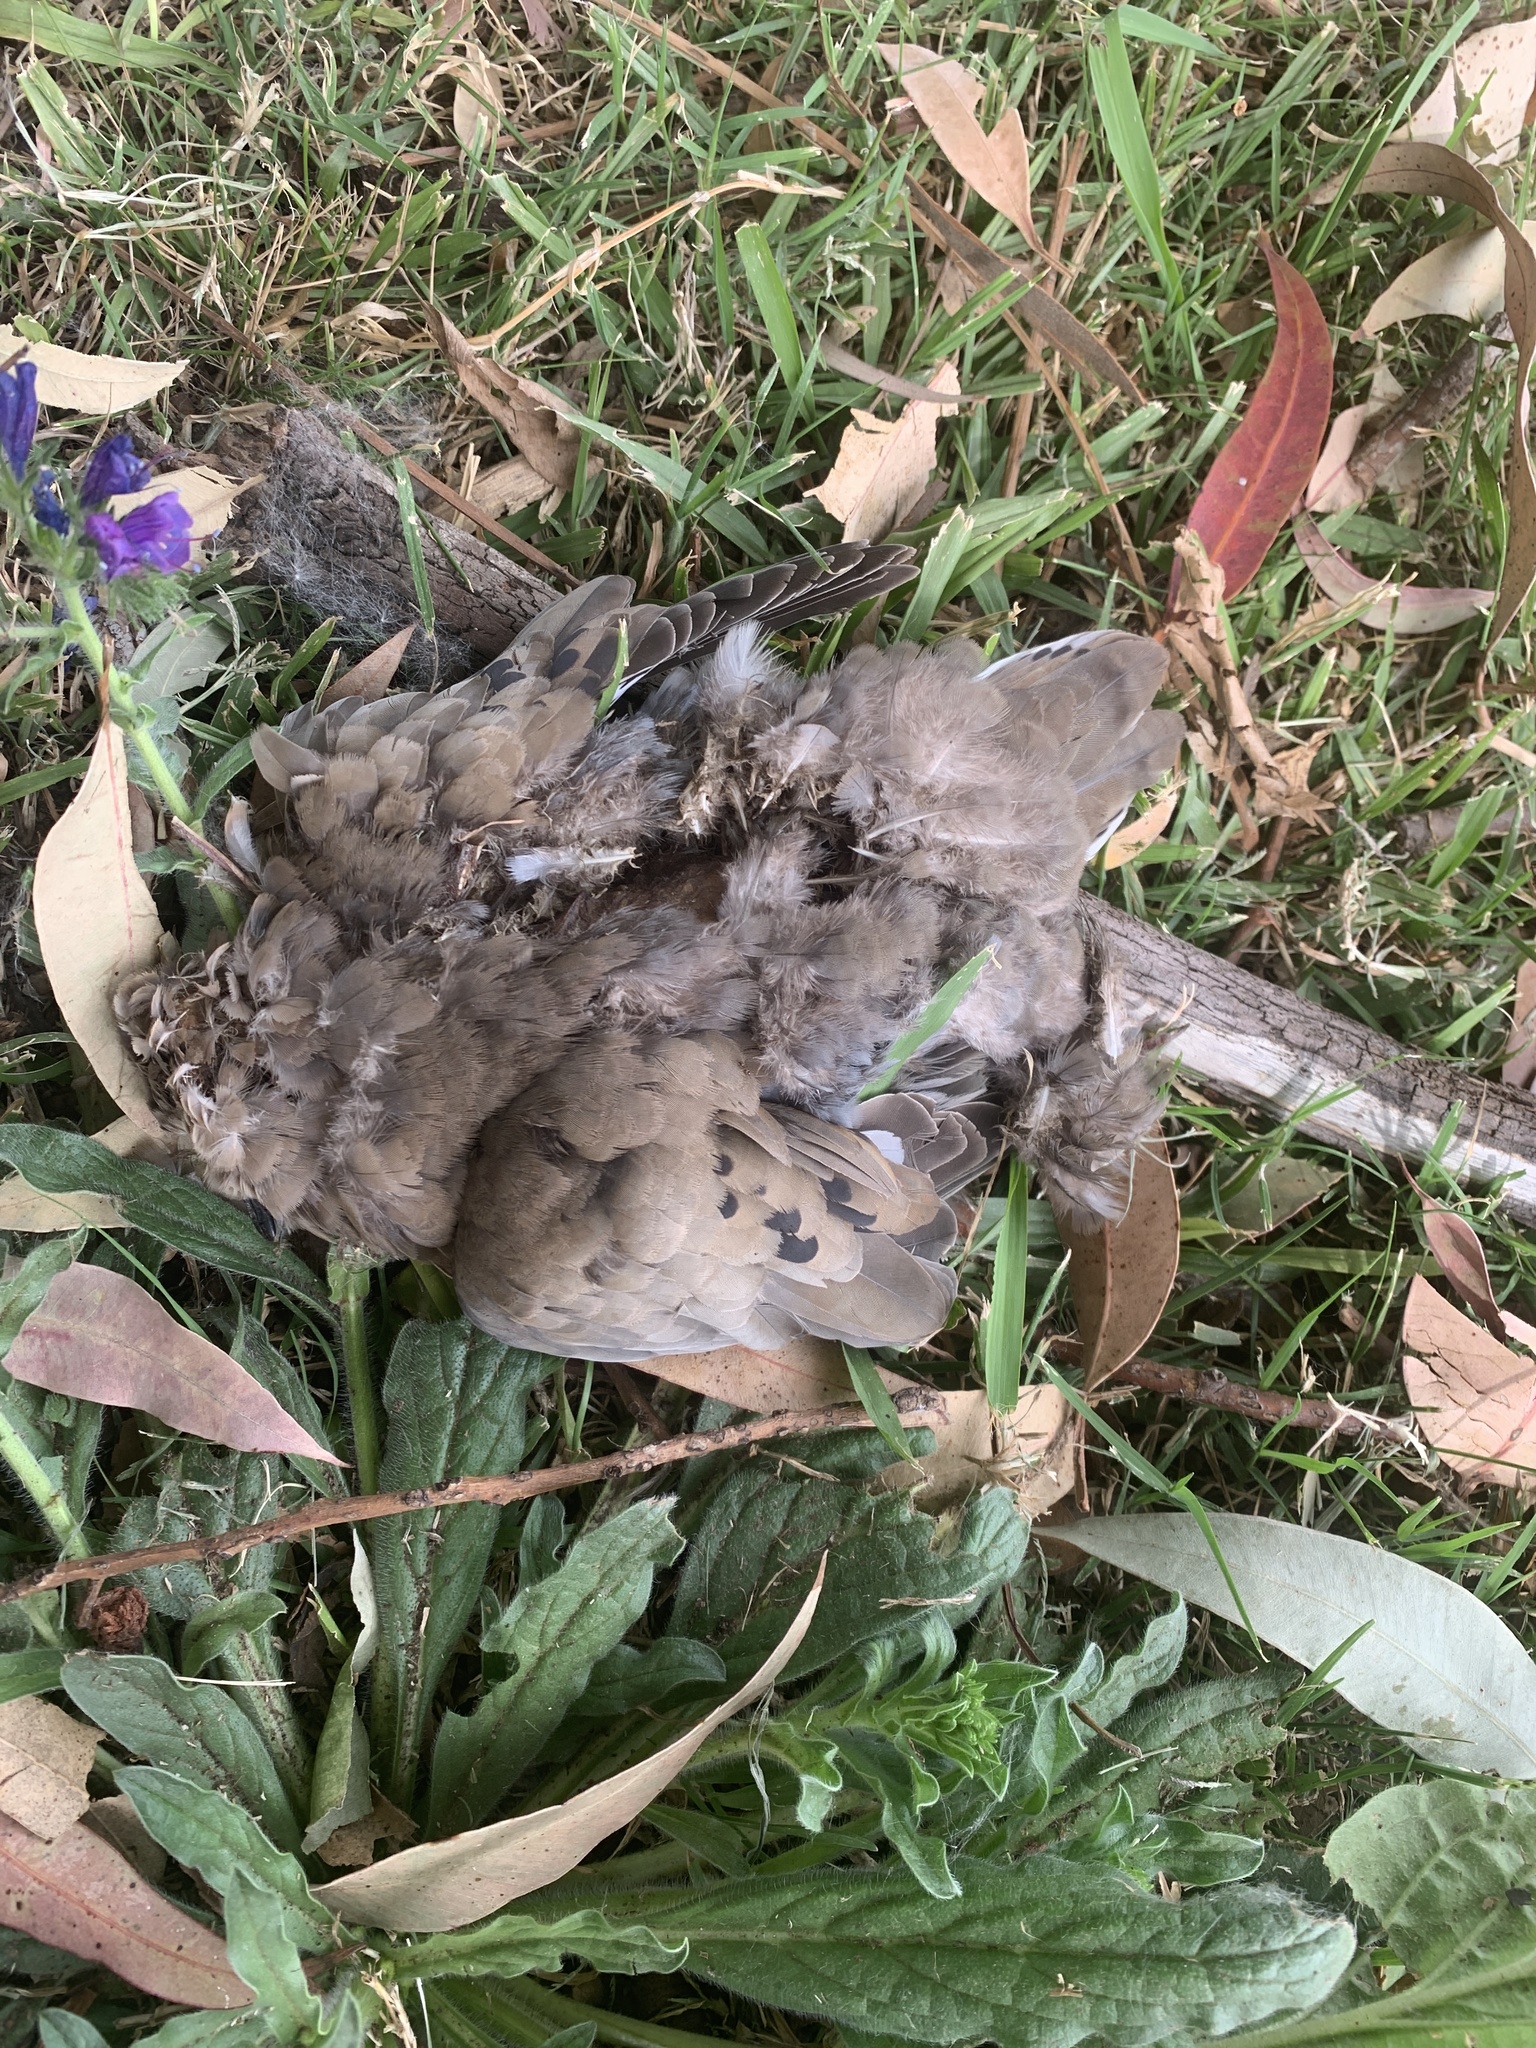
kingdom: Animalia
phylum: Chordata
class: Aves
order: Columbiformes
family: Columbidae
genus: Zenaida
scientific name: Zenaida auriculata
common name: Eared dove
